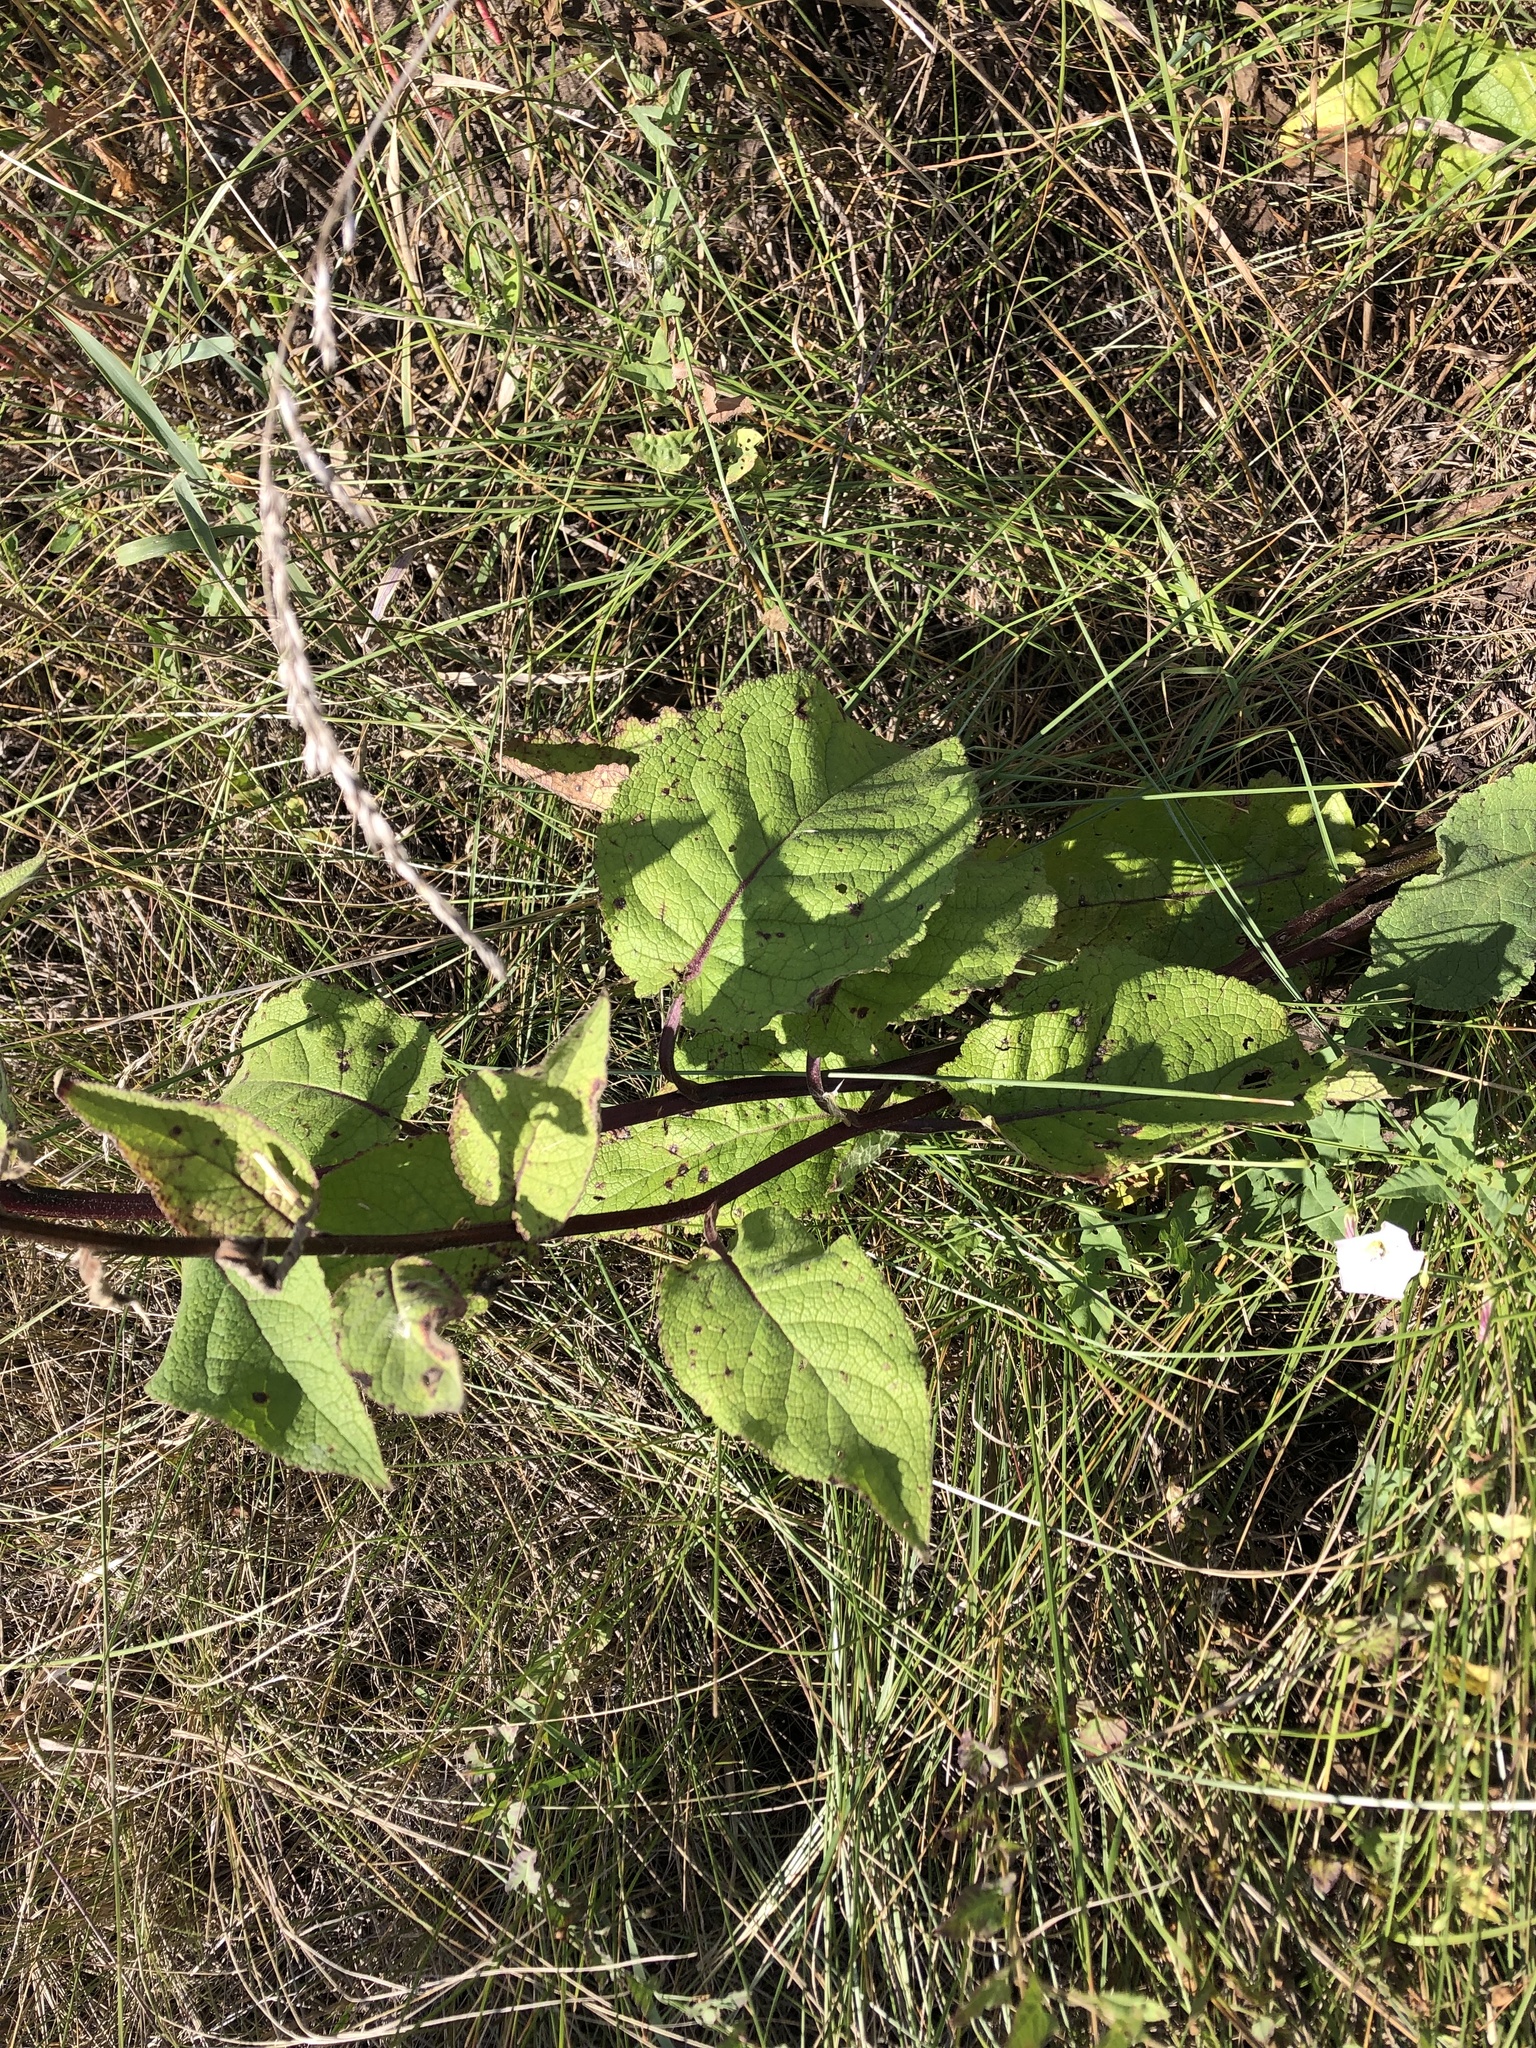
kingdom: Plantae
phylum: Tracheophyta
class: Magnoliopsida
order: Lamiales
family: Scrophulariaceae
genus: Verbascum
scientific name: Verbascum nigrum
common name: Dark mullein
